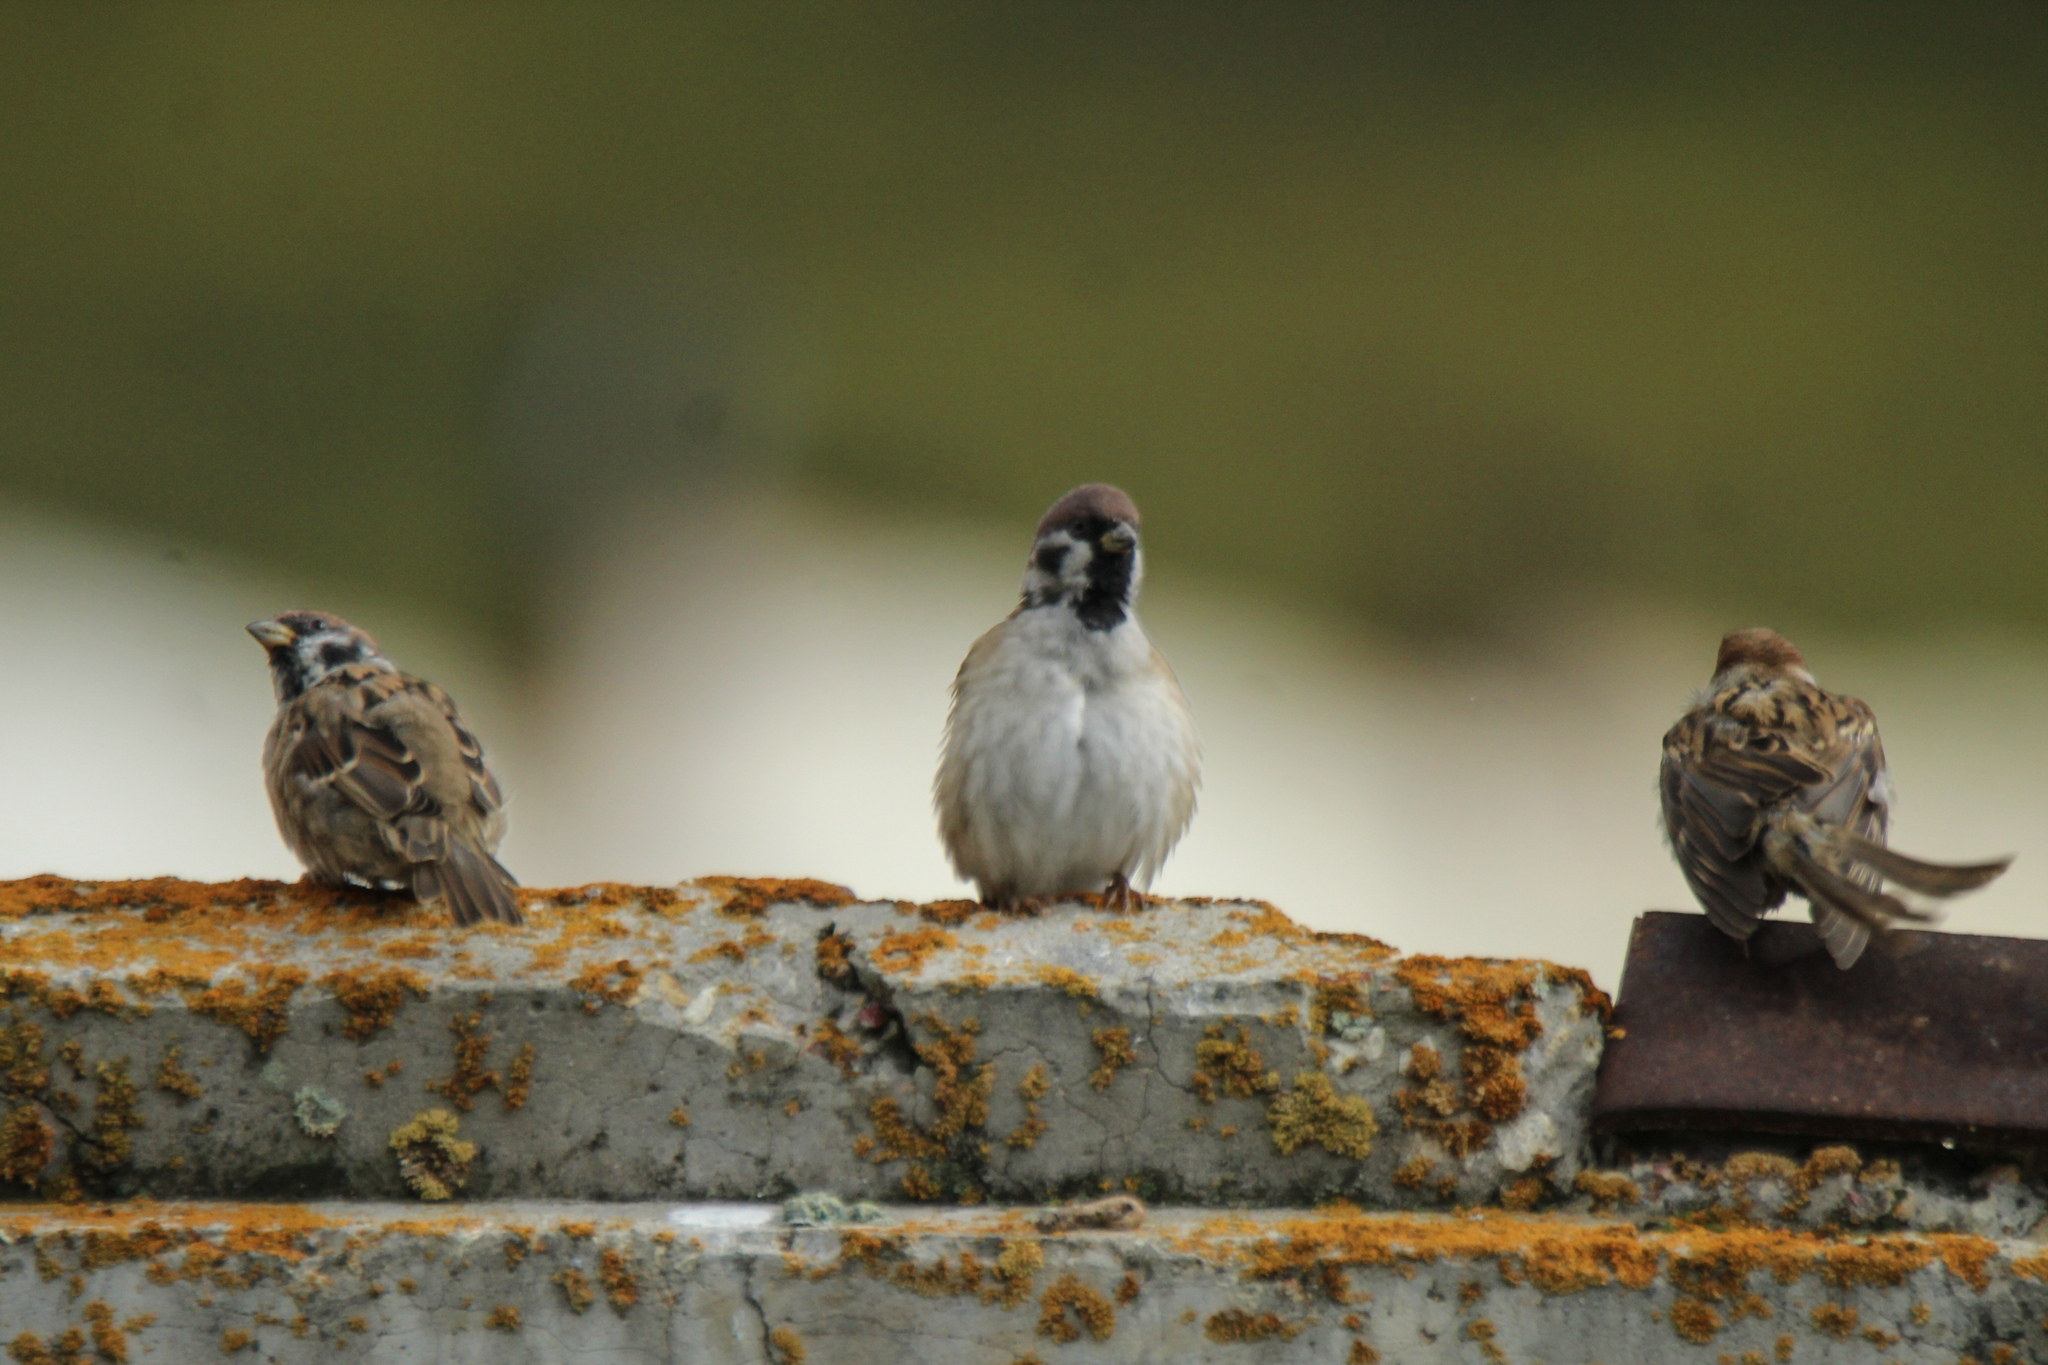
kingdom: Animalia
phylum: Chordata
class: Aves
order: Passeriformes
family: Passeridae
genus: Passer
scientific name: Passer montanus
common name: Eurasian tree sparrow
